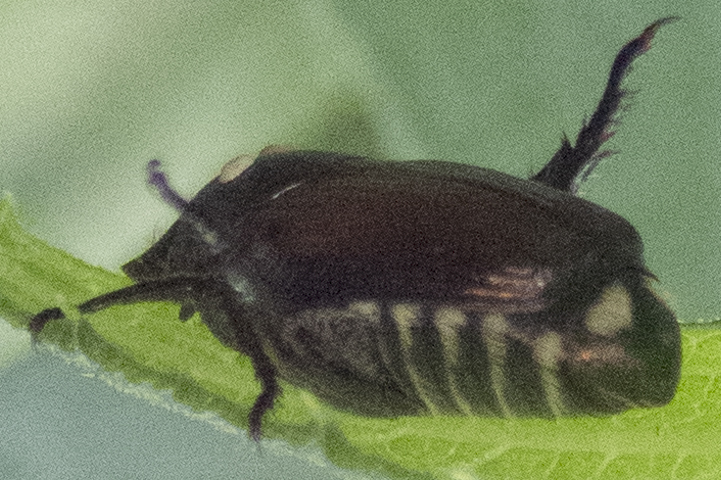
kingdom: Animalia
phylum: Arthropoda
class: Insecta
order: Coleoptera
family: Scarabaeidae
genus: Popillia
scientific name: Popillia japonica
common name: Japanese beetle
